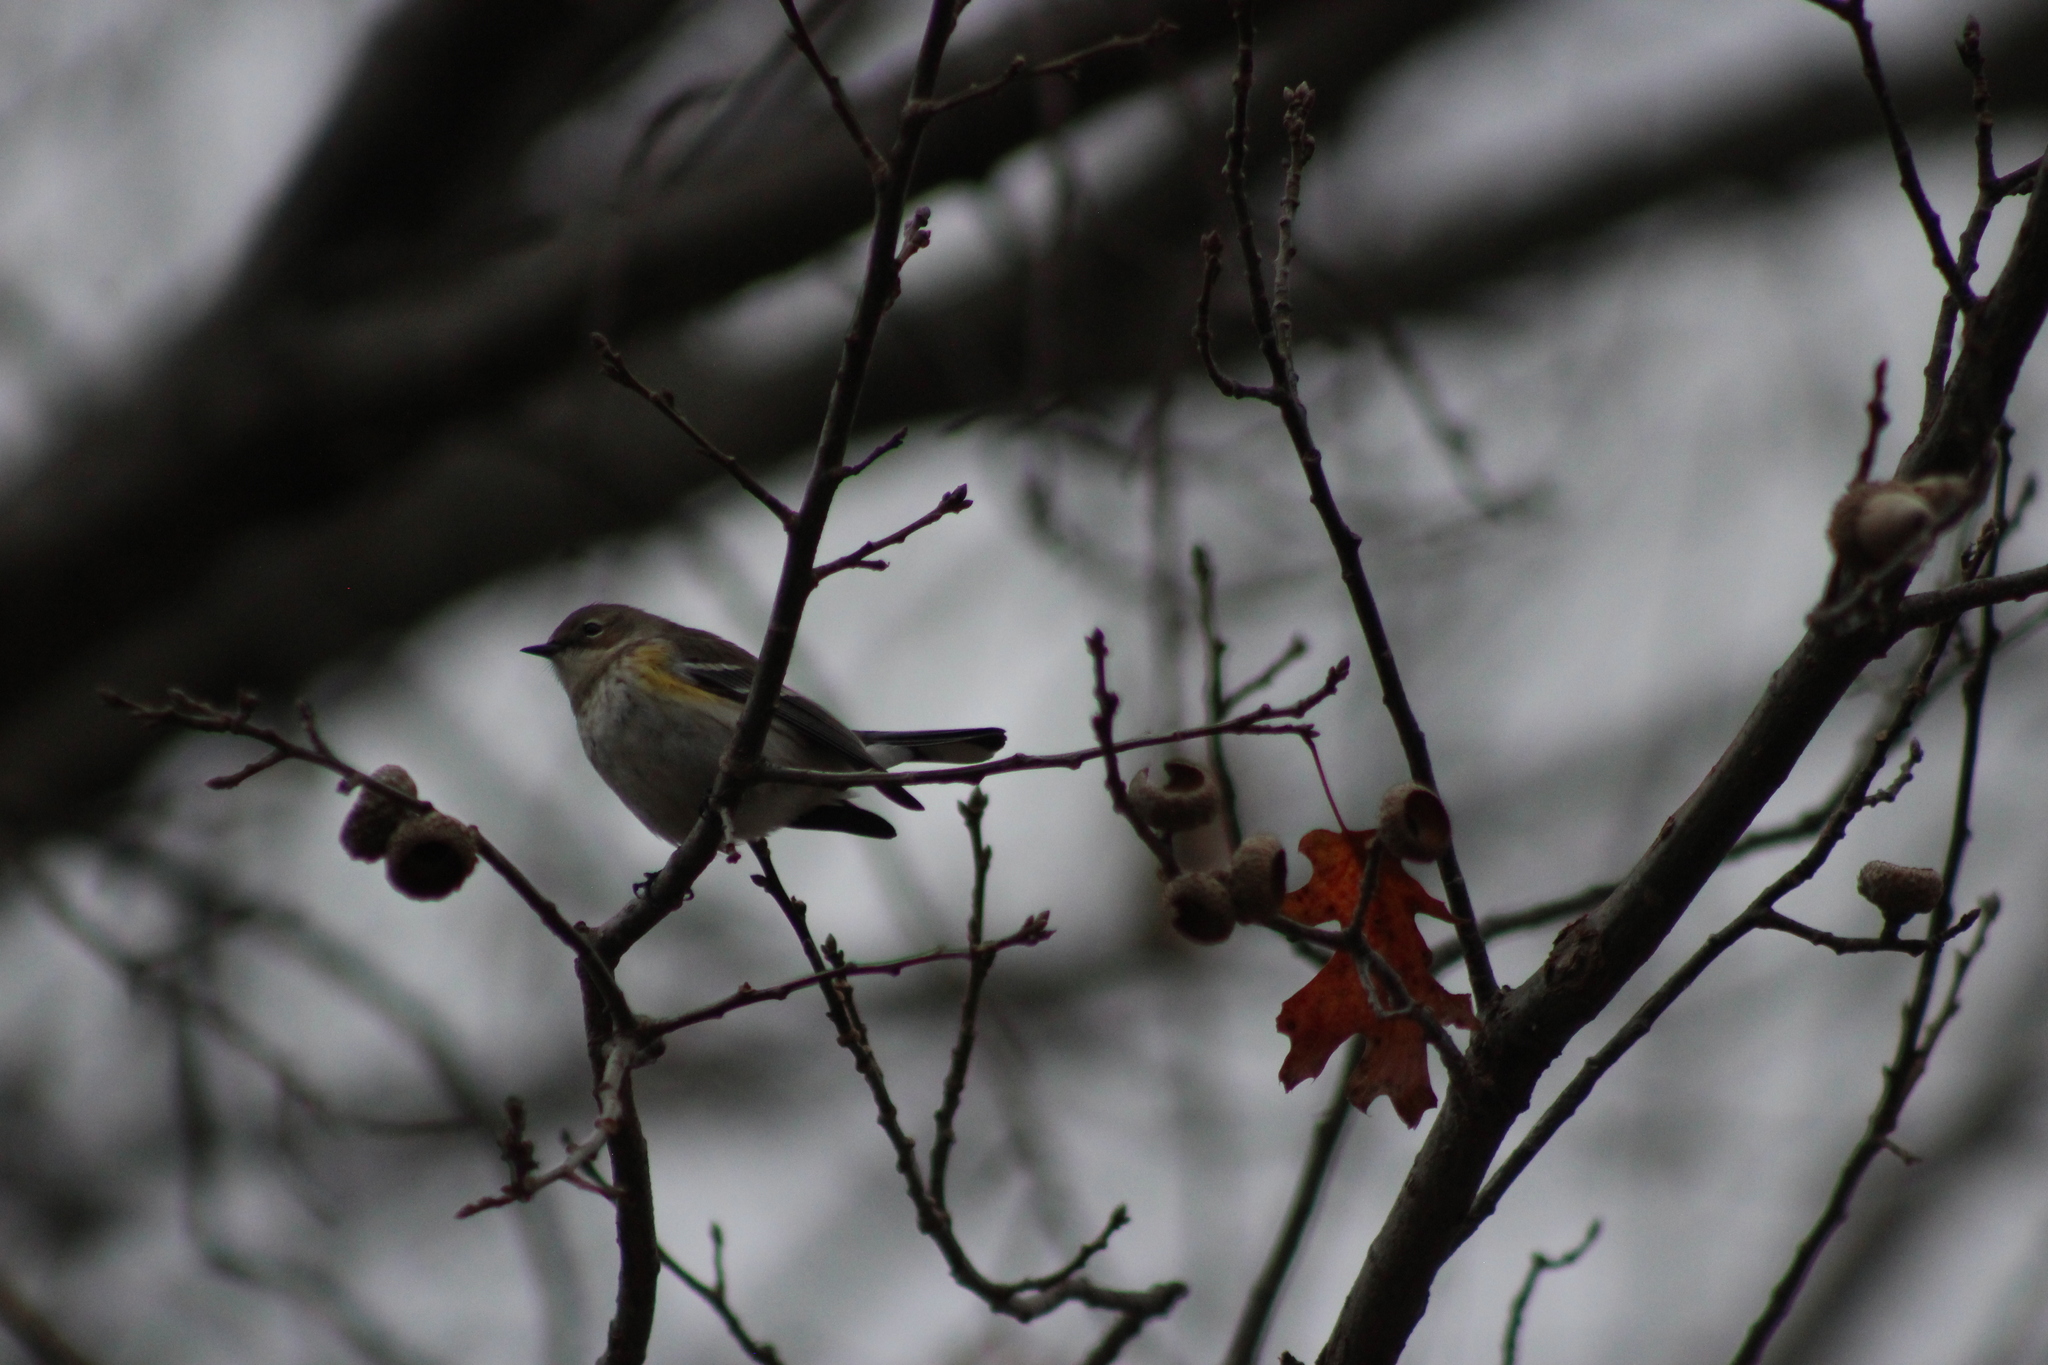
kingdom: Animalia
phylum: Chordata
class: Aves
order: Passeriformes
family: Parulidae
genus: Setophaga
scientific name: Setophaga coronata
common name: Myrtle warbler
